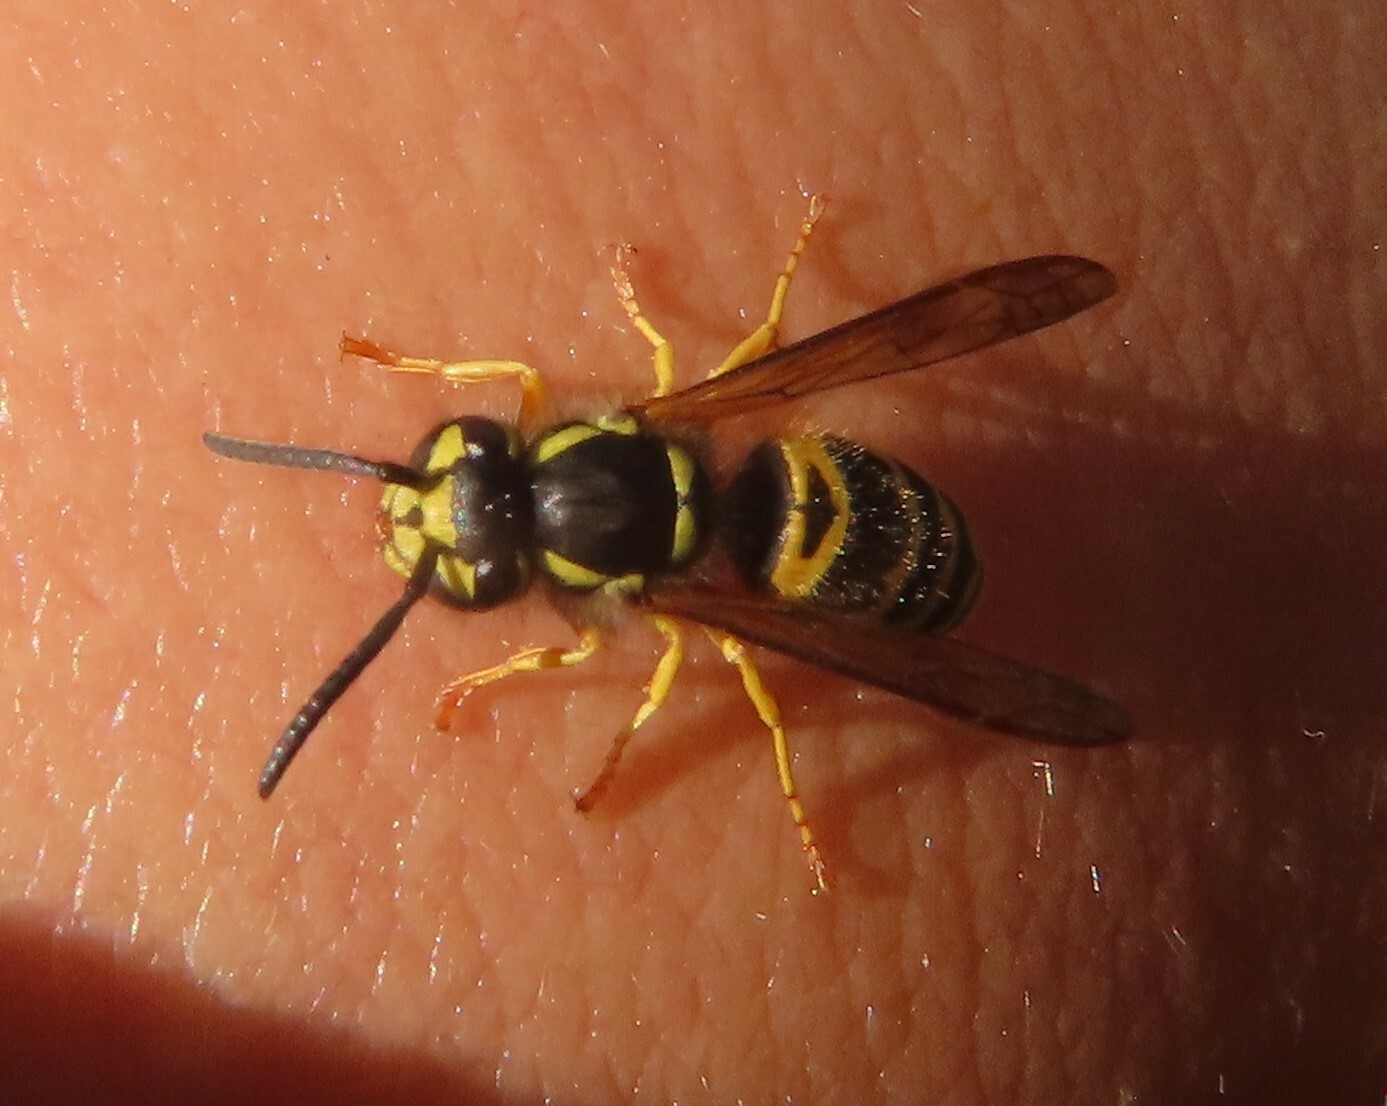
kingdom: Animalia
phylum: Arthropoda
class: Insecta
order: Hymenoptera
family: Vespidae
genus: Vespula
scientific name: Vespula maculifrons
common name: Eastern yellowjacket
